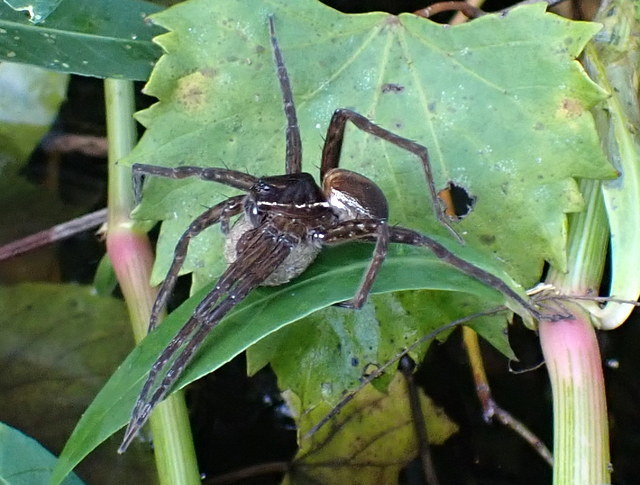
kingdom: Animalia
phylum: Arthropoda
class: Arachnida
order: Araneae
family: Pisauridae
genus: Dolomedes
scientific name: Dolomedes triton
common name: Six-spotted fishing spider
